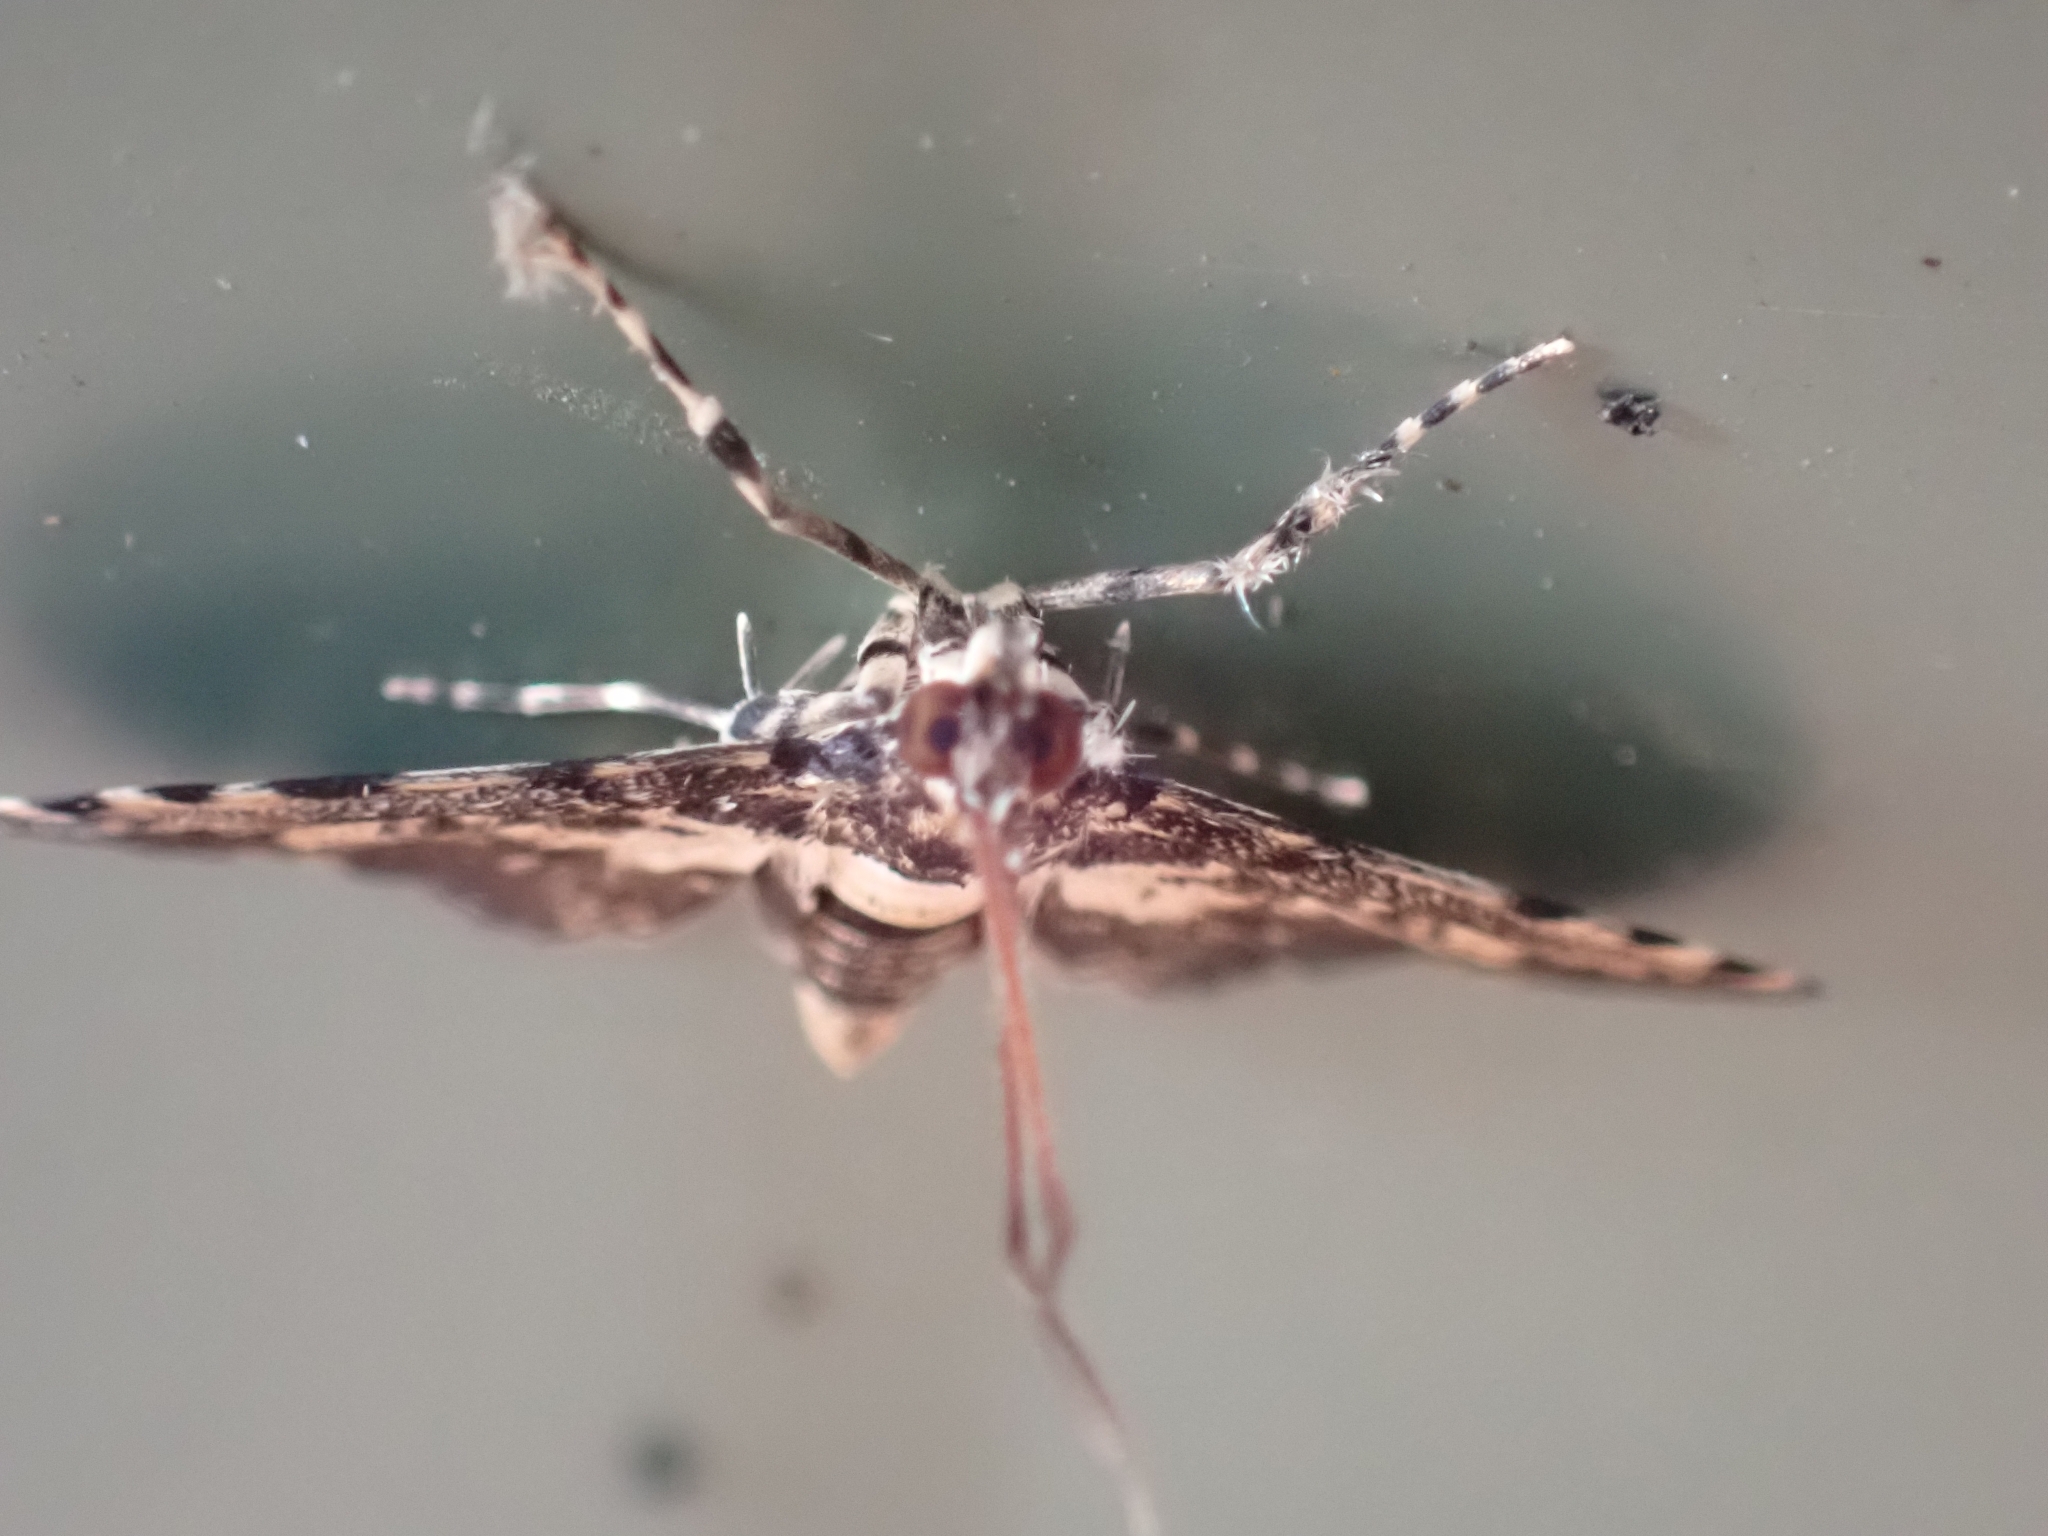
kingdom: Animalia
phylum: Arthropoda
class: Insecta
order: Lepidoptera
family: Crambidae
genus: Nacoleia
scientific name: Nacoleia amphicedalis
